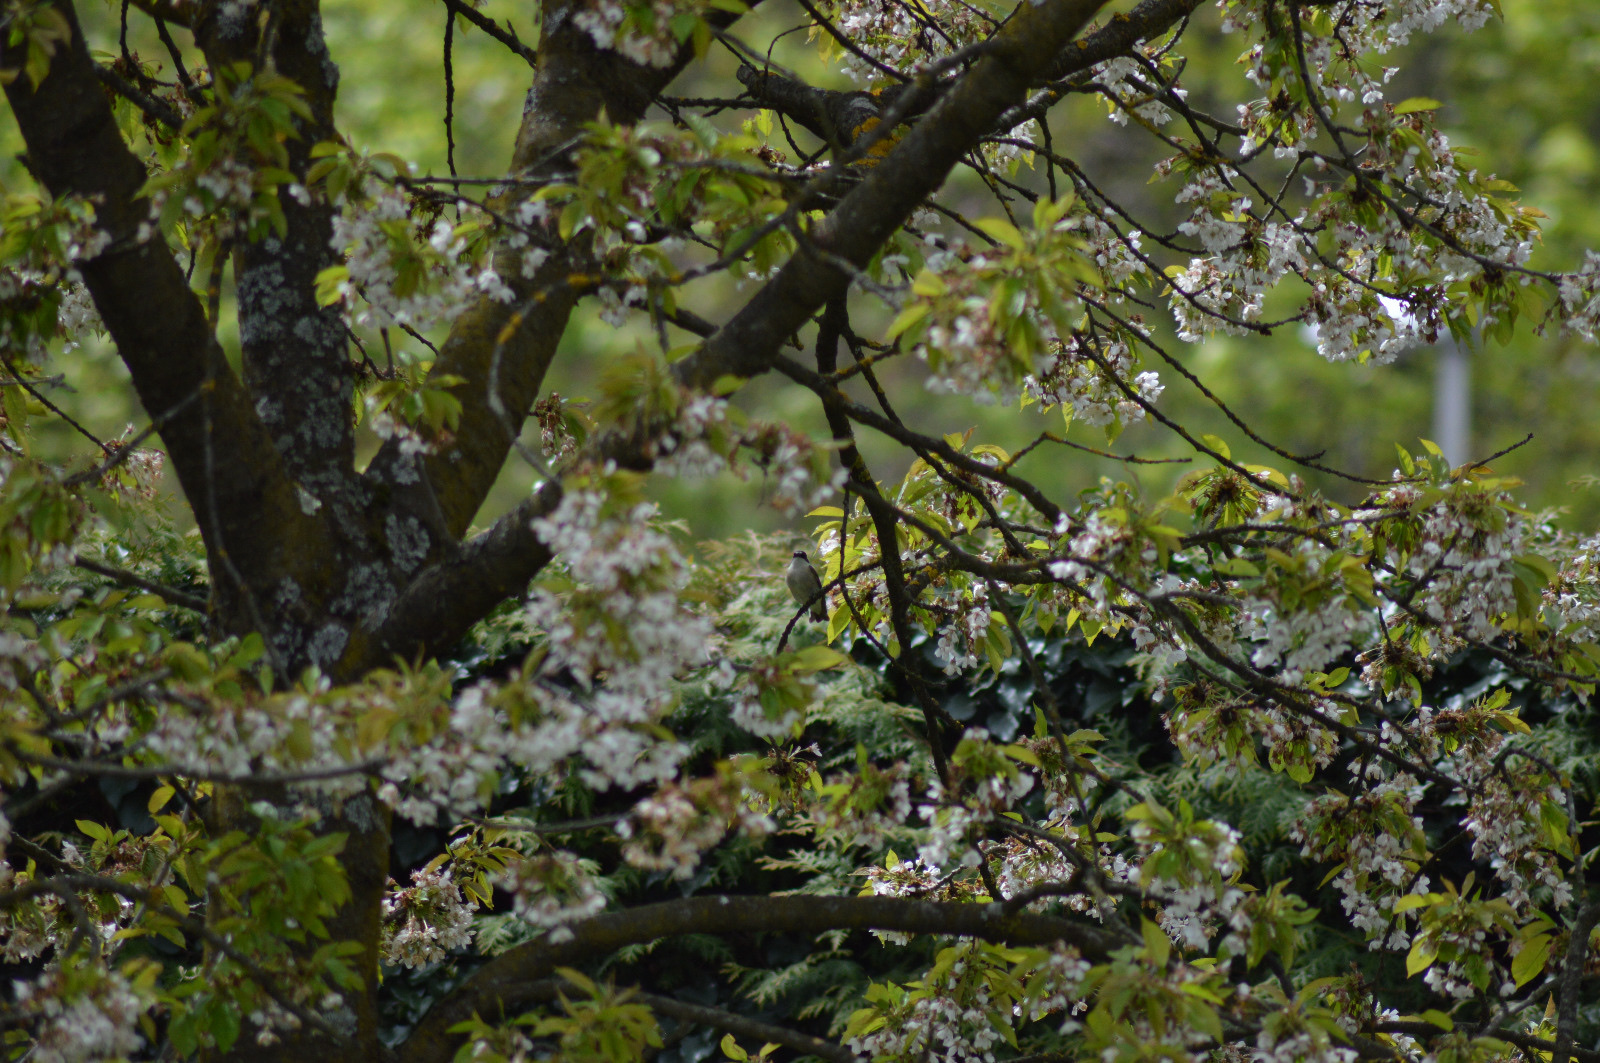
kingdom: Animalia
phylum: Chordata
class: Aves
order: Passeriformes
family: Muscicapidae
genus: Ficedula
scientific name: Ficedula hypoleuca
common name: European pied flycatcher
